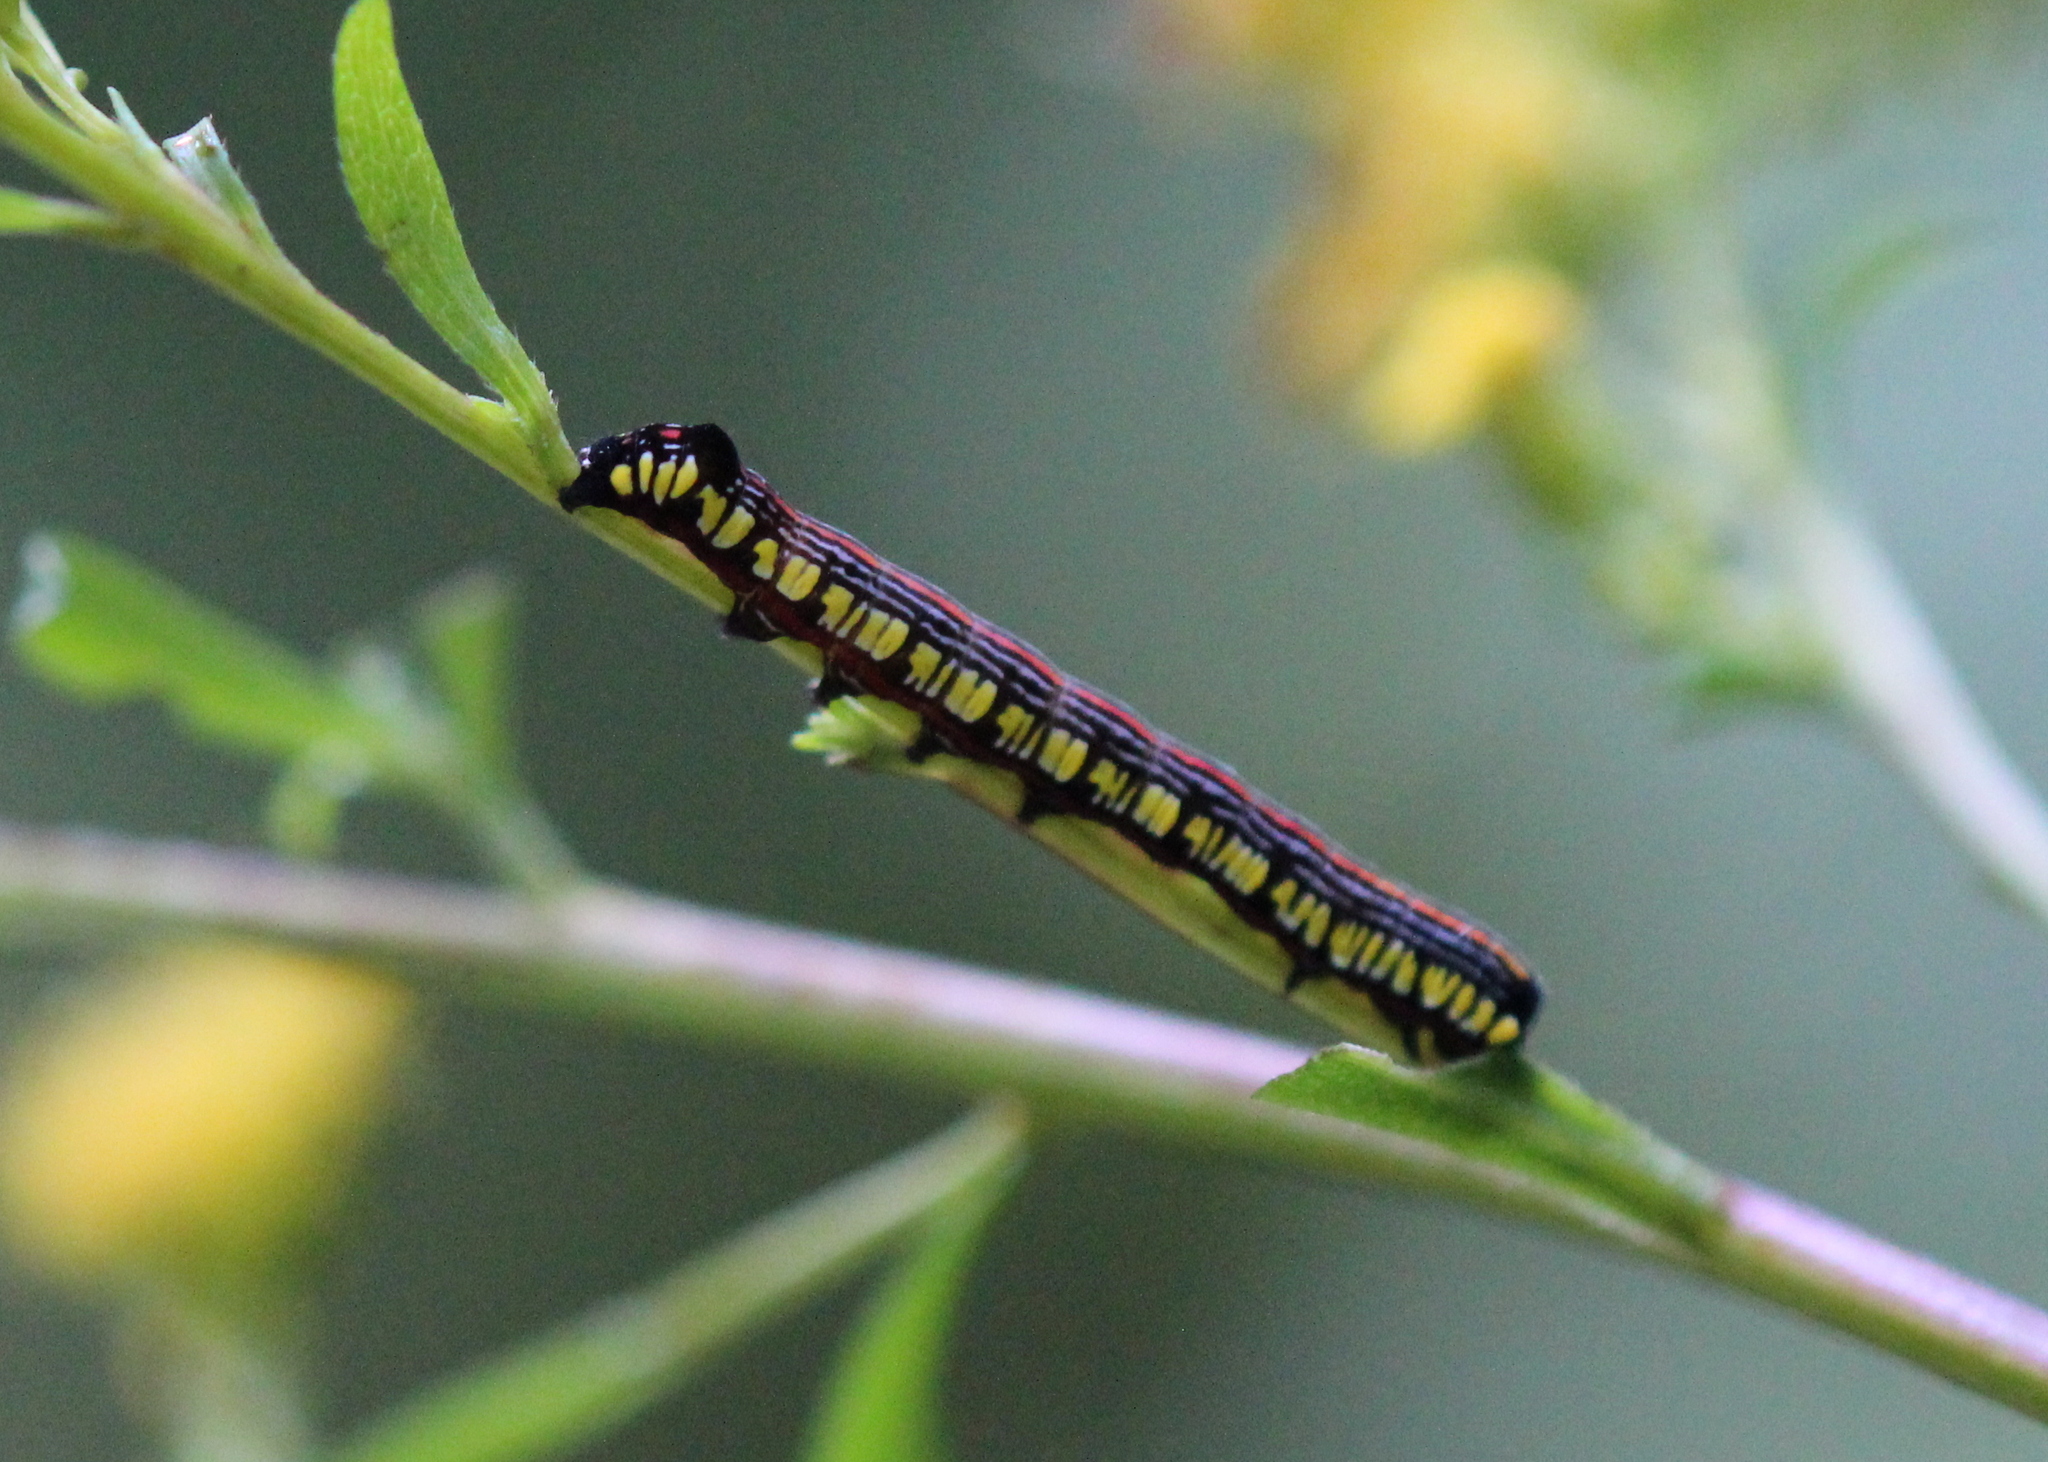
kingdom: Animalia
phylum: Arthropoda
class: Insecta
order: Lepidoptera
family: Noctuidae
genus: Cucullia
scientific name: Cucullia convexipennis
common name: Brown-hooded owlet
